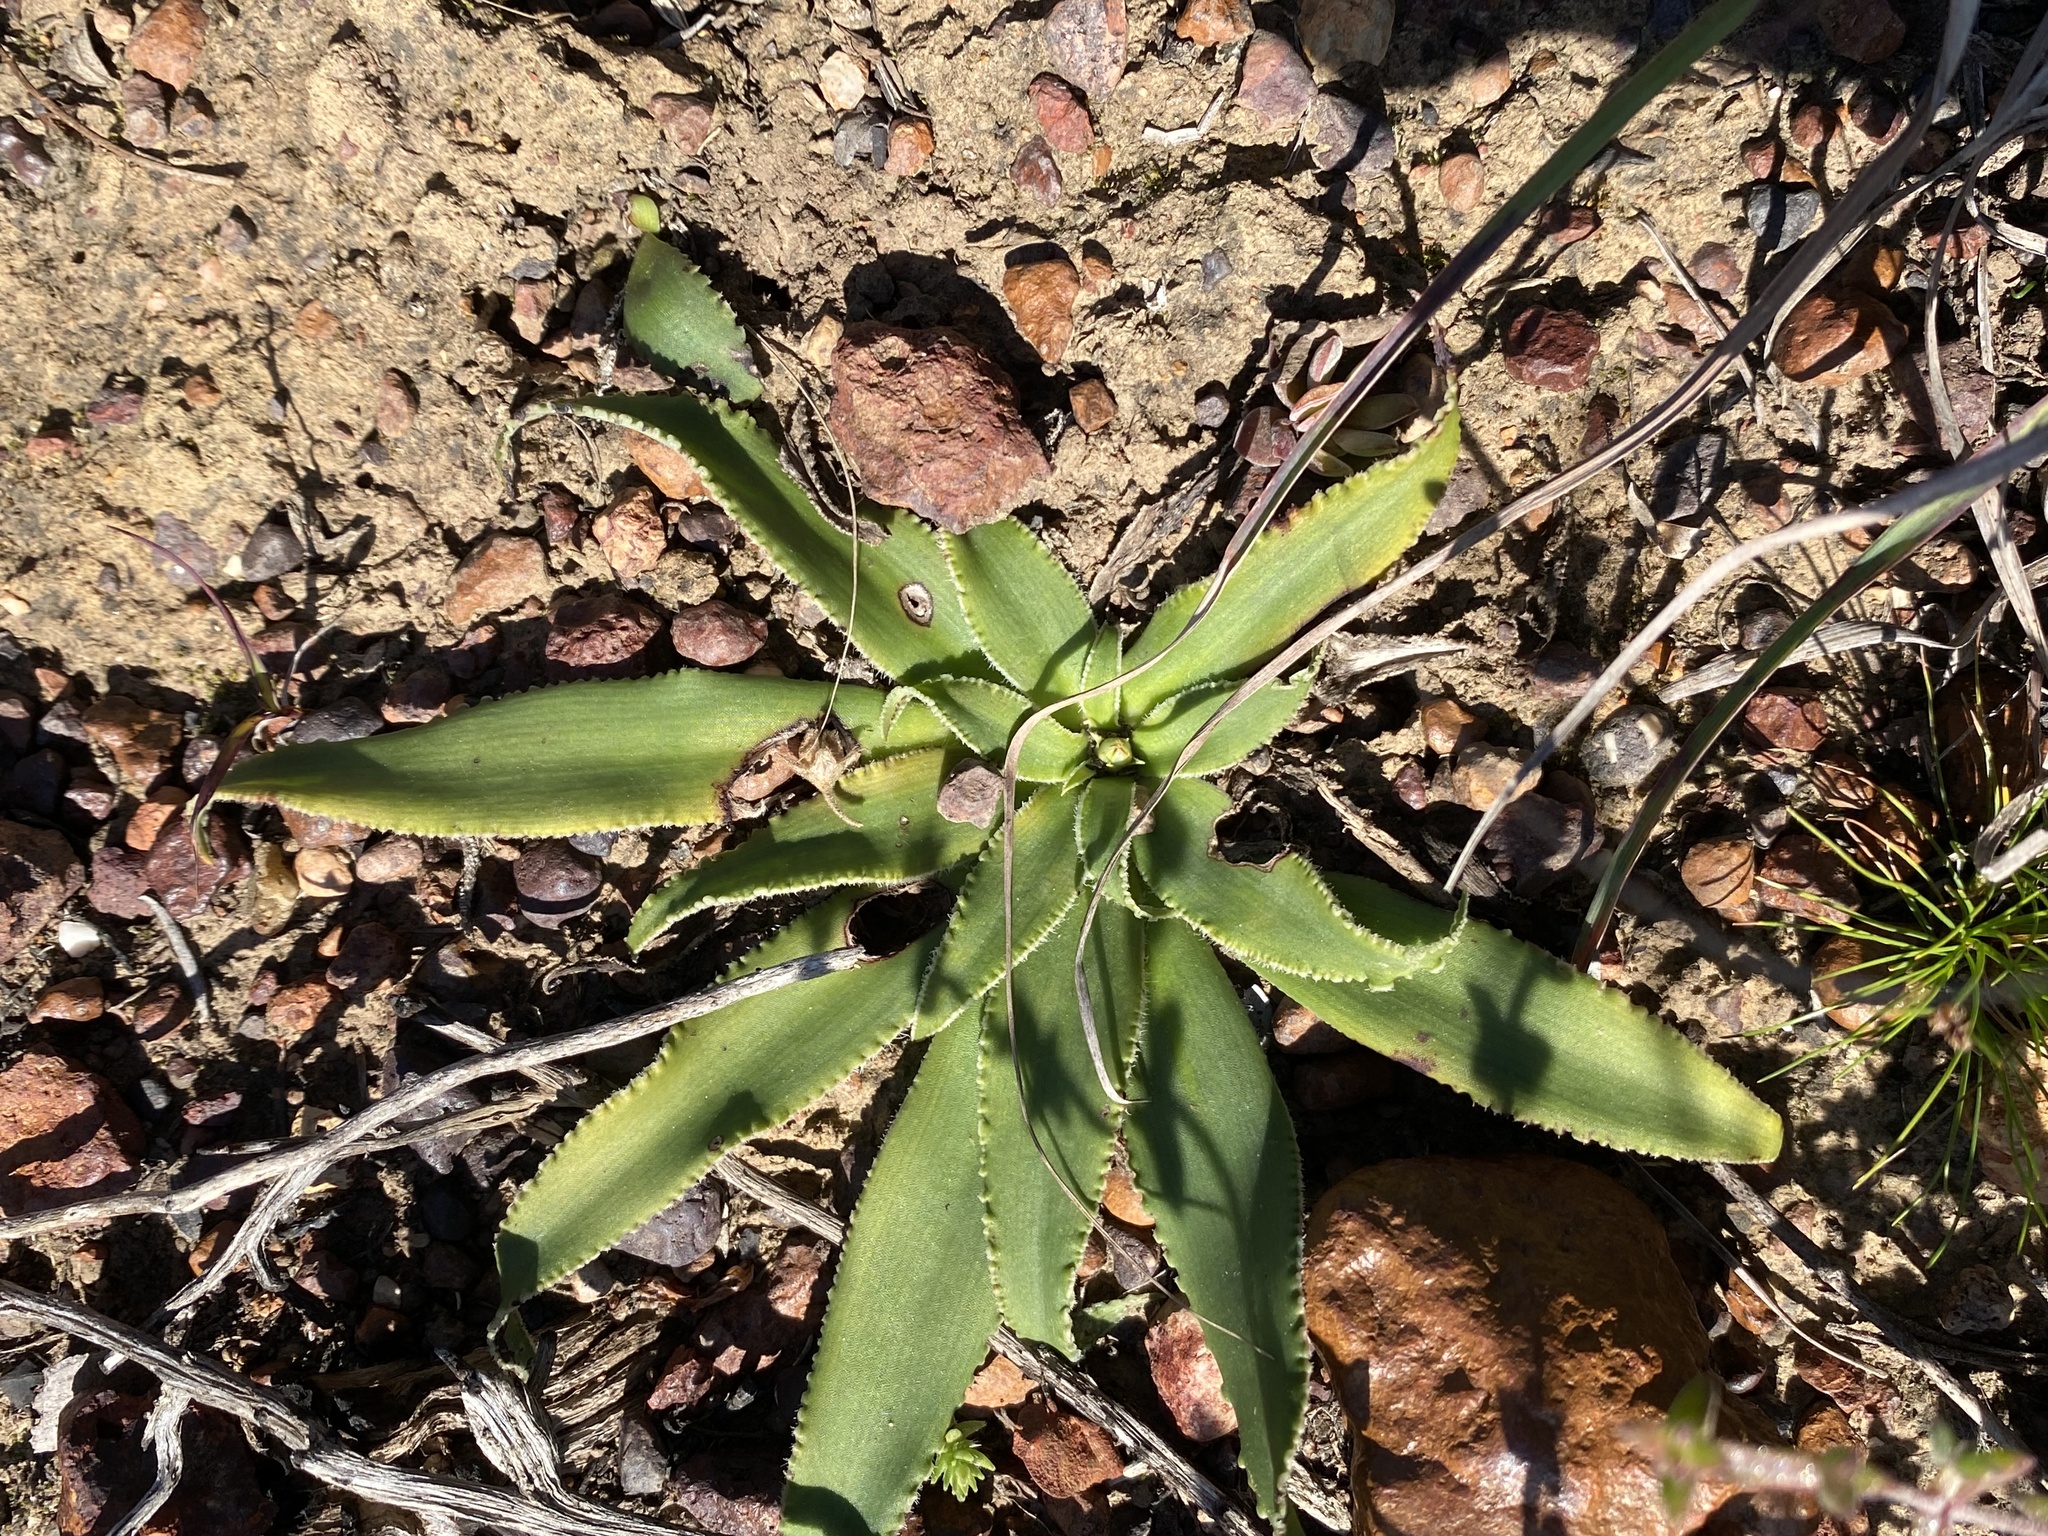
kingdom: Plantae
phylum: Tracheophyta
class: Liliopsida
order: Asparagales
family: Asparagaceae
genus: Chlorophytum
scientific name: Chlorophytum crispum
